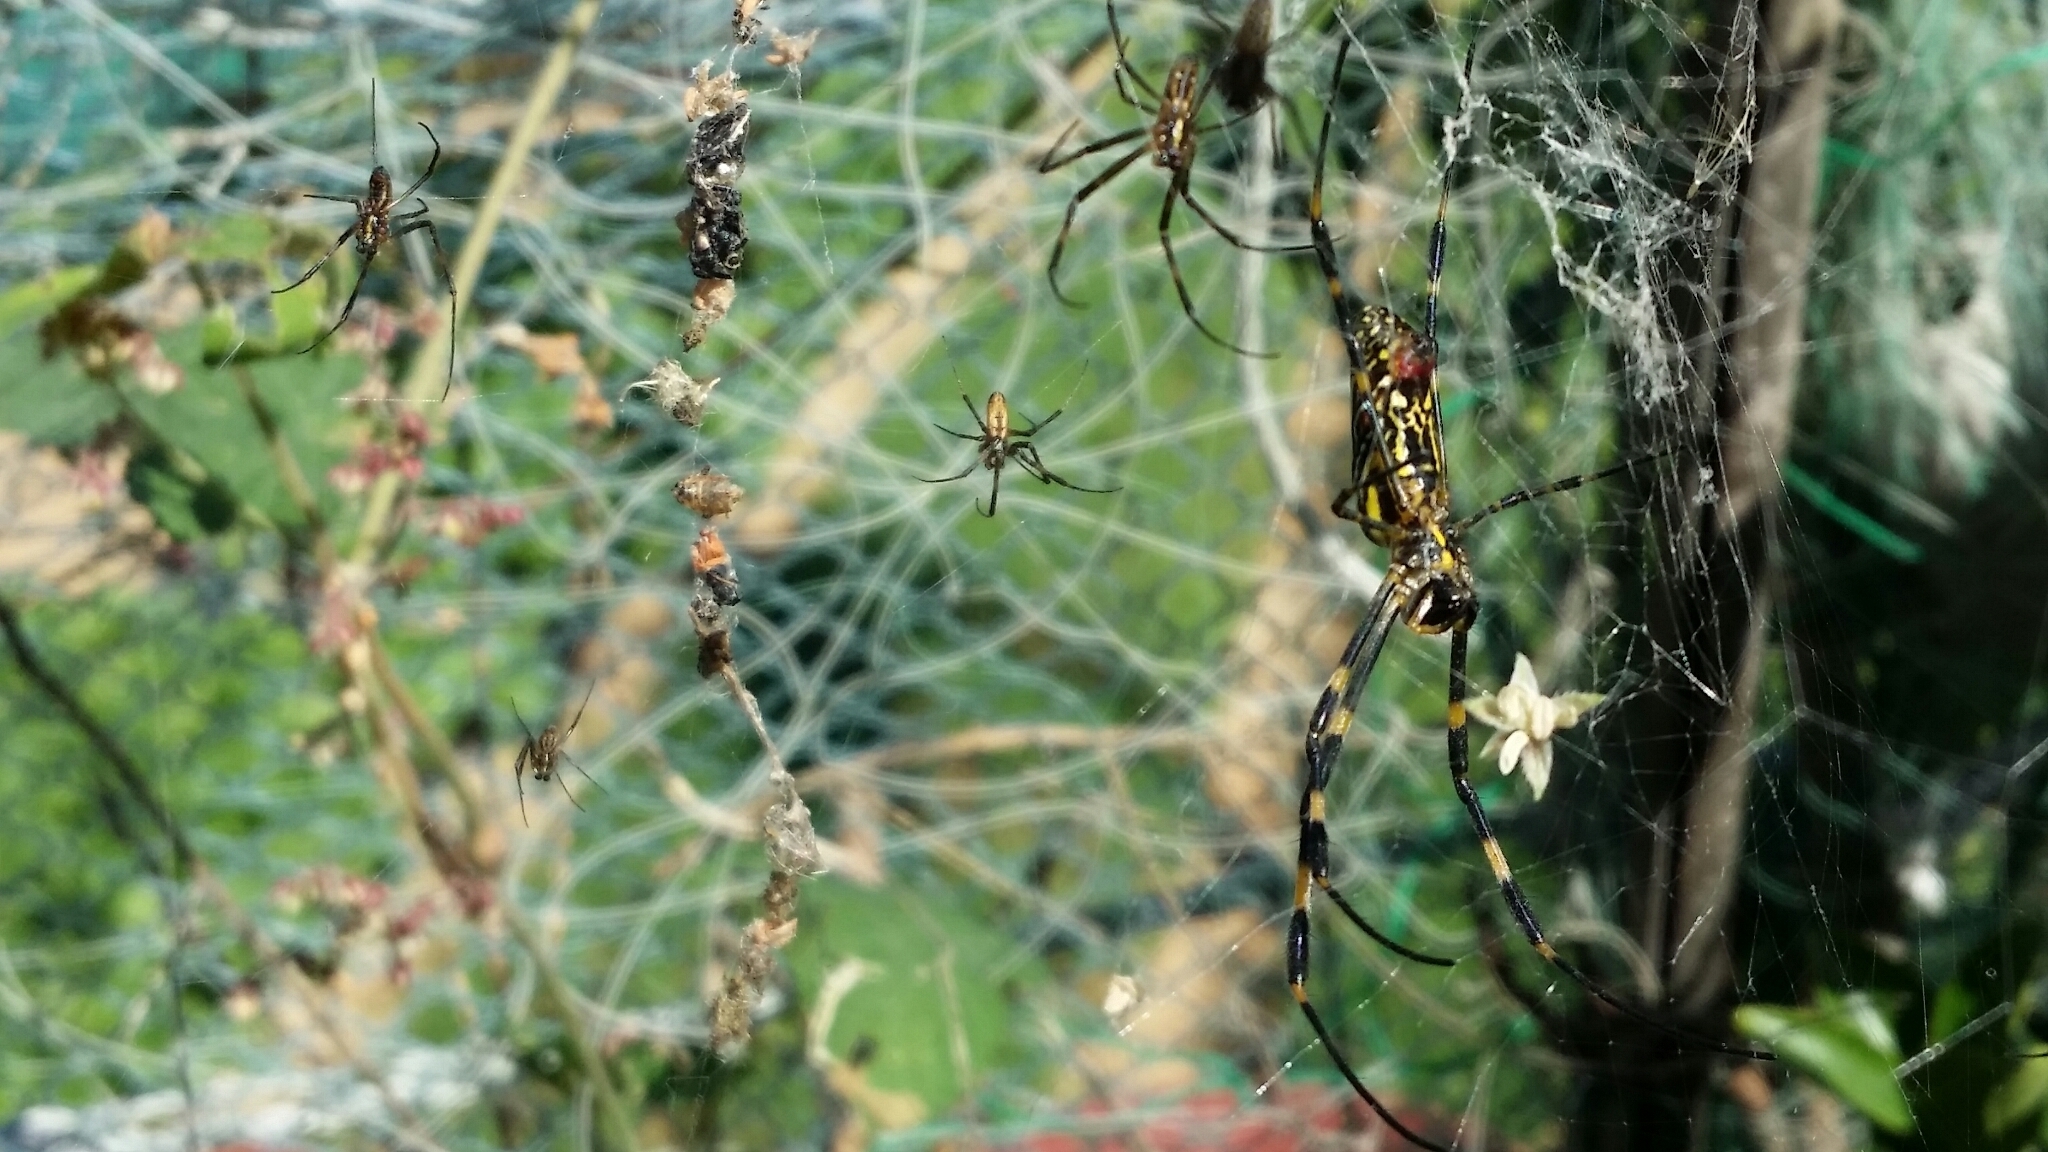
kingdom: Animalia
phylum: Arthropoda
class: Arachnida
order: Araneae
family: Araneidae
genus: Trichonephila
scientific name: Trichonephila clavata
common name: Jorō spider
